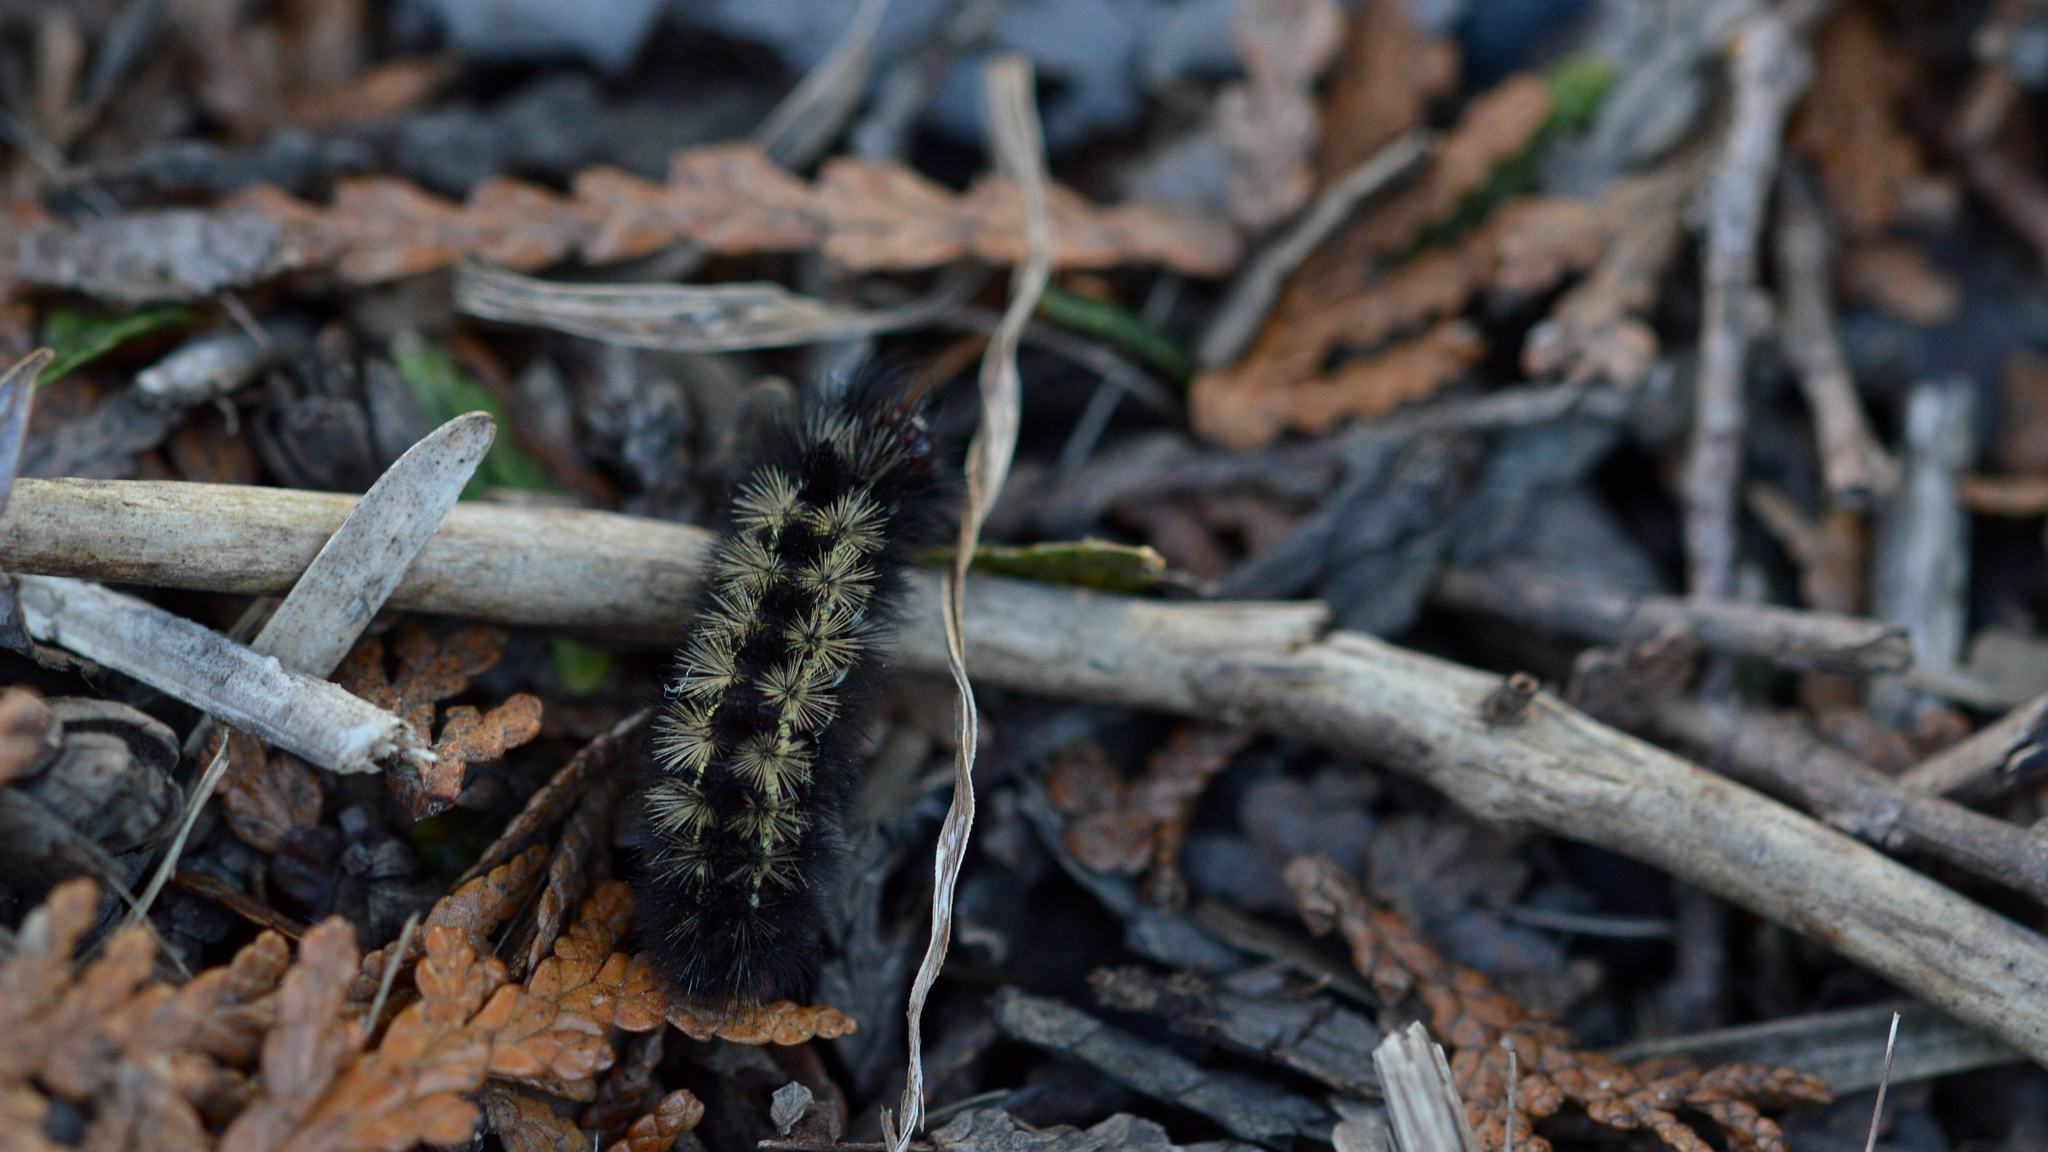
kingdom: Animalia
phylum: Arthropoda
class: Insecta
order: Lepidoptera
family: Erebidae
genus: Ctenucha
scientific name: Ctenucha virginica
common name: Virginia ctenucha moth
